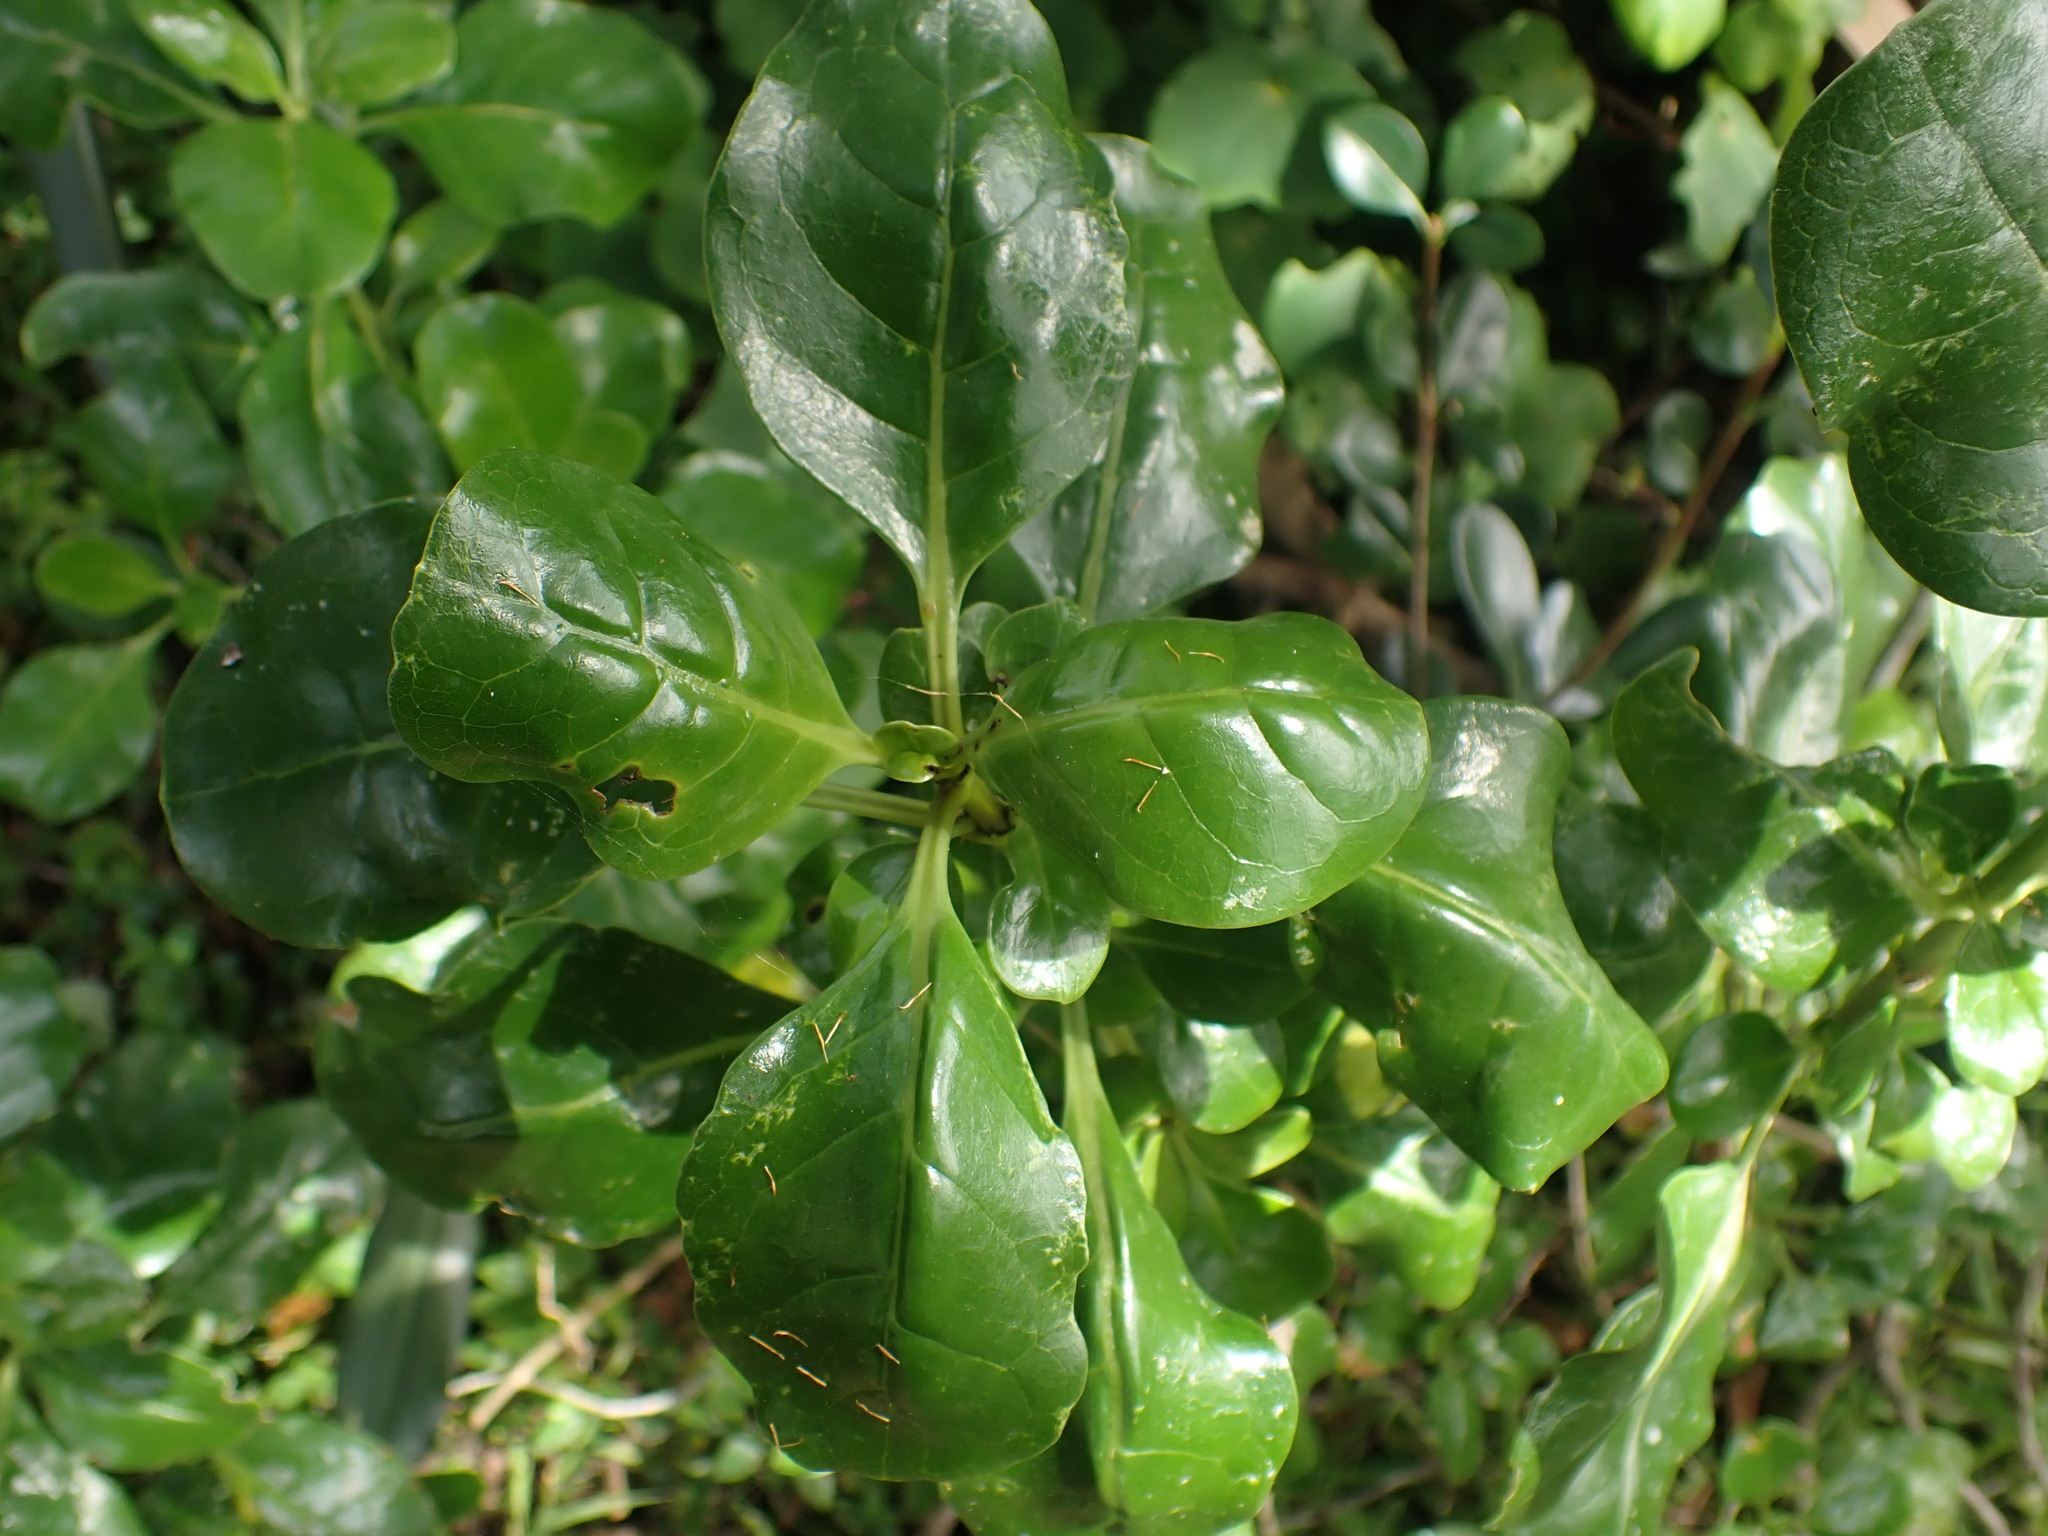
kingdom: Plantae
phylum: Tracheophyta
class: Magnoliopsida
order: Gentianales
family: Rubiaceae
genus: Coprosma
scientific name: Coprosma repens
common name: Tree bedstraw
